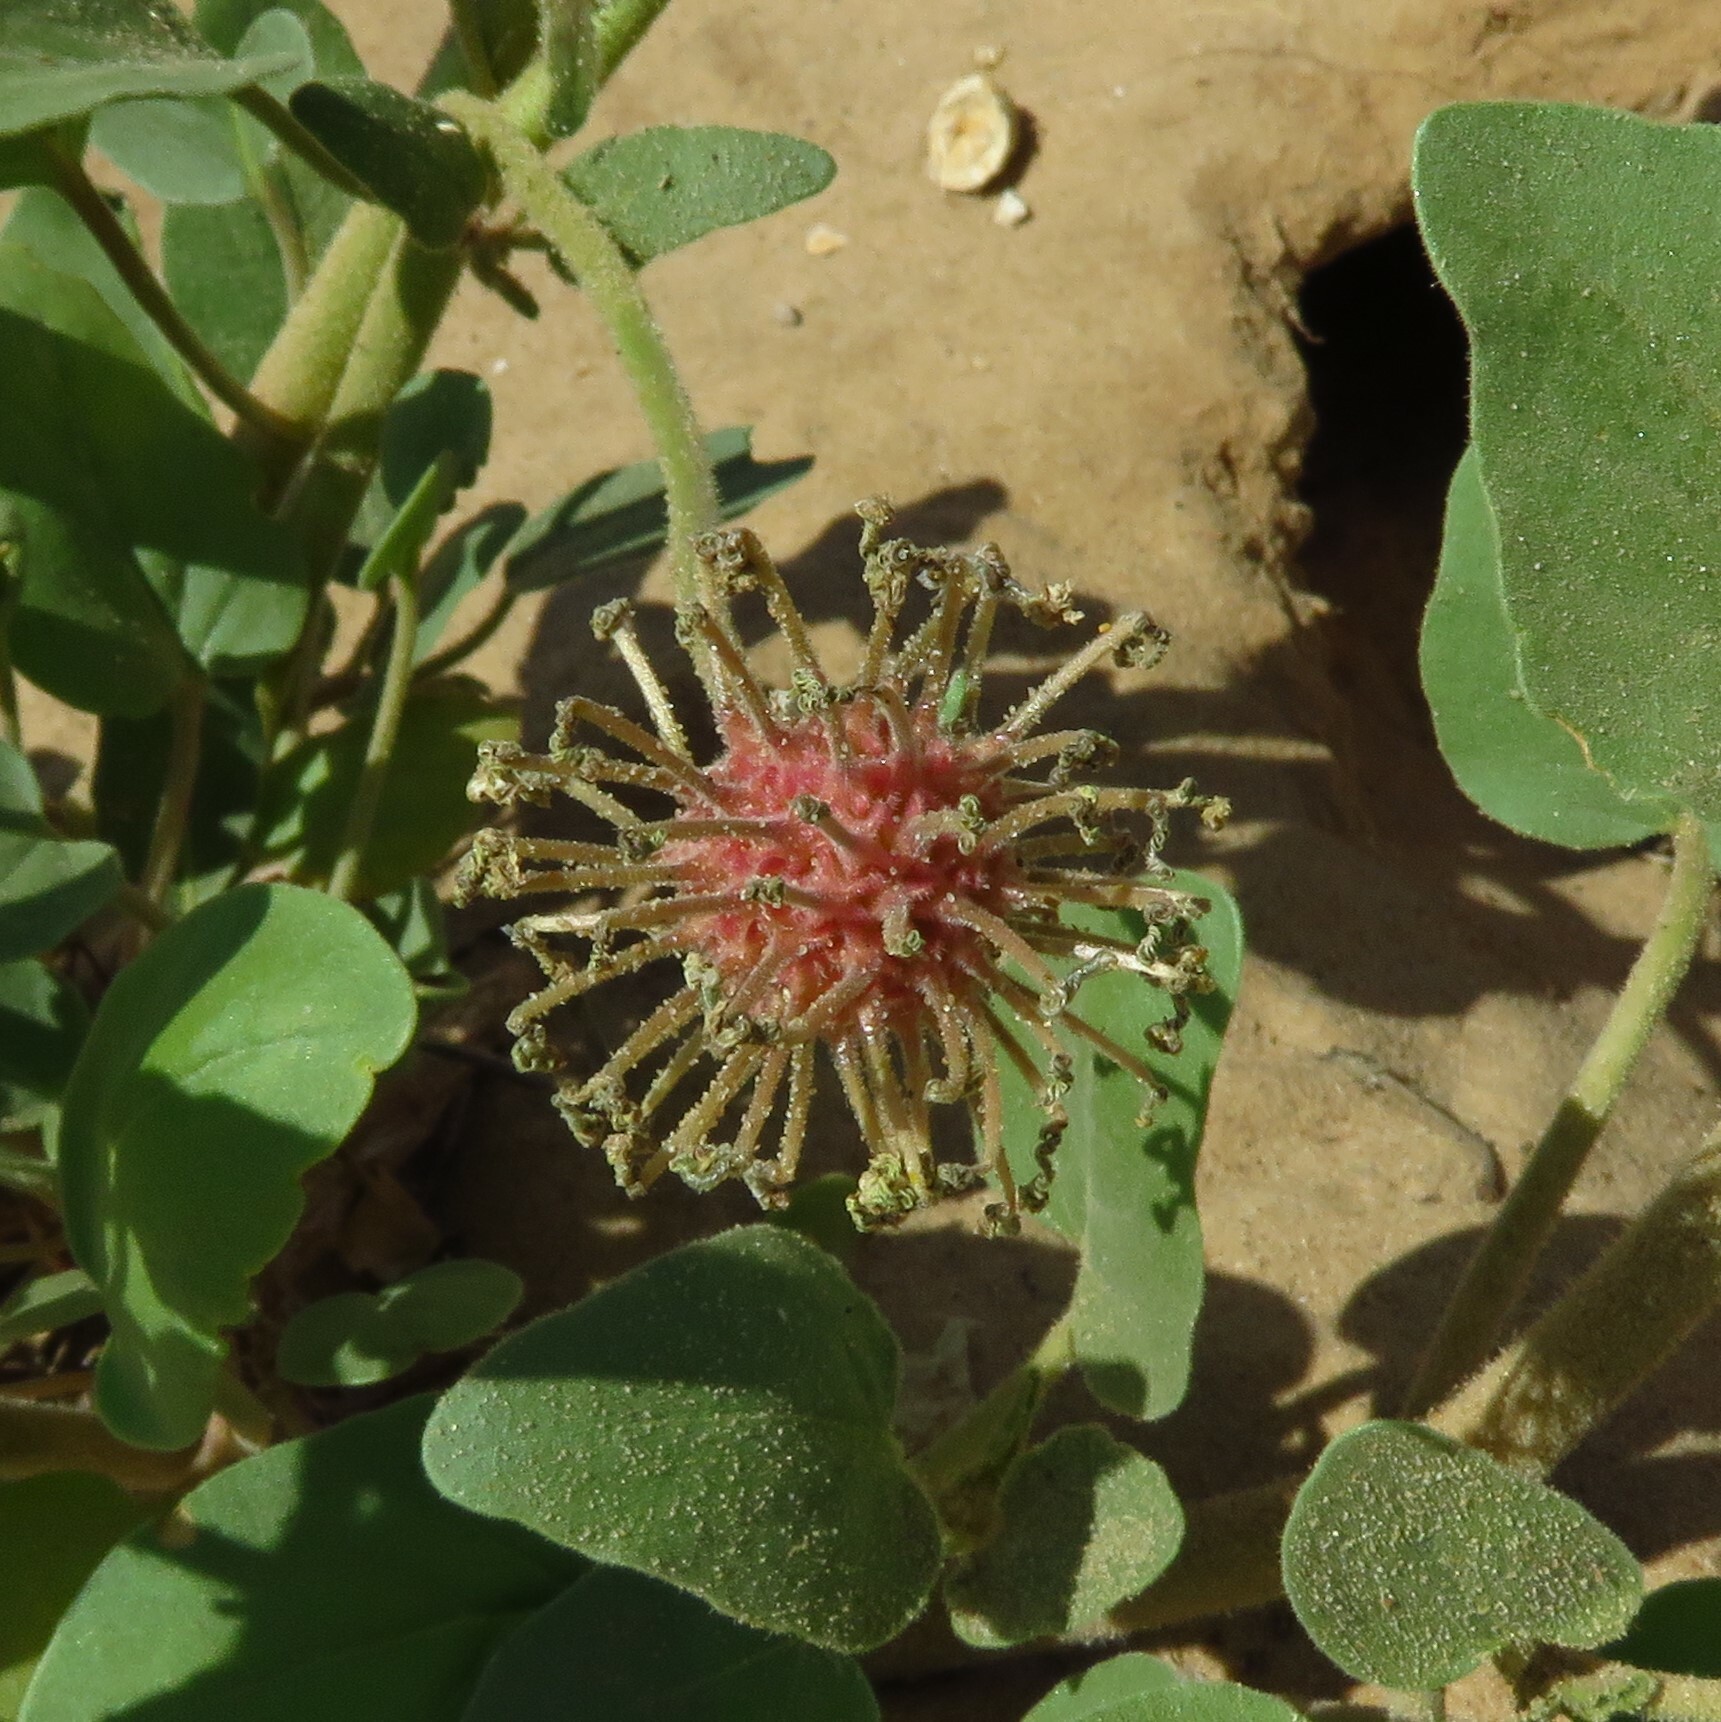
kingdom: Plantae
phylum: Tracheophyta
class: Magnoliopsida
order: Caryophyllales
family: Nyctaginaceae
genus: Abronia
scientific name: Abronia fragrans
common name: Fragrant sand-verbena
